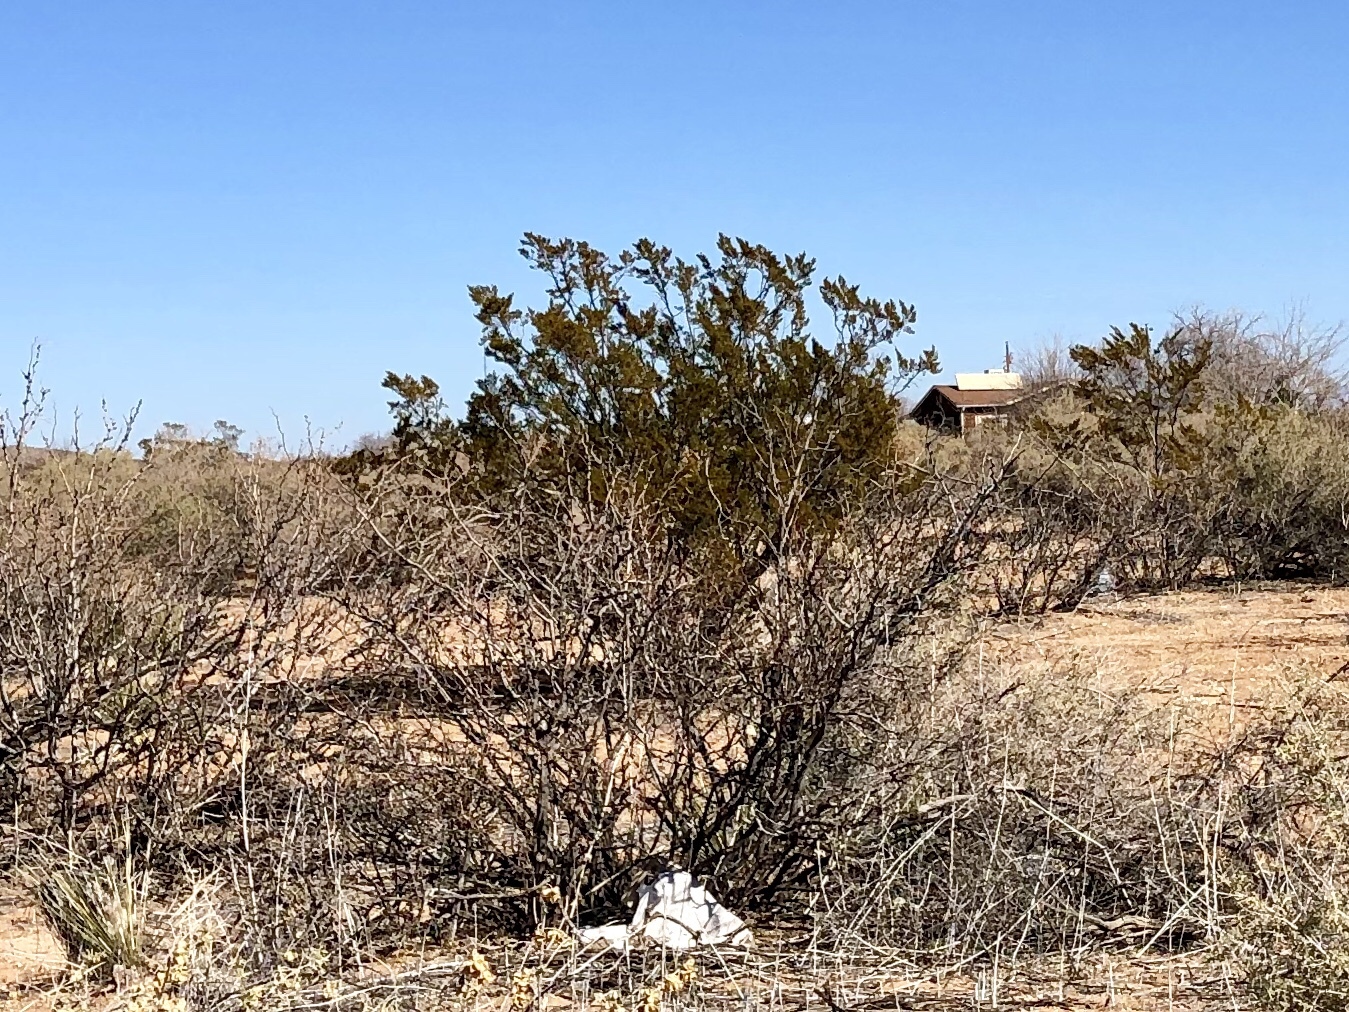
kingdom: Plantae
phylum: Tracheophyta
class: Magnoliopsida
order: Zygophyllales
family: Zygophyllaceae
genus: Larrea
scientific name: Larrea tridentata
